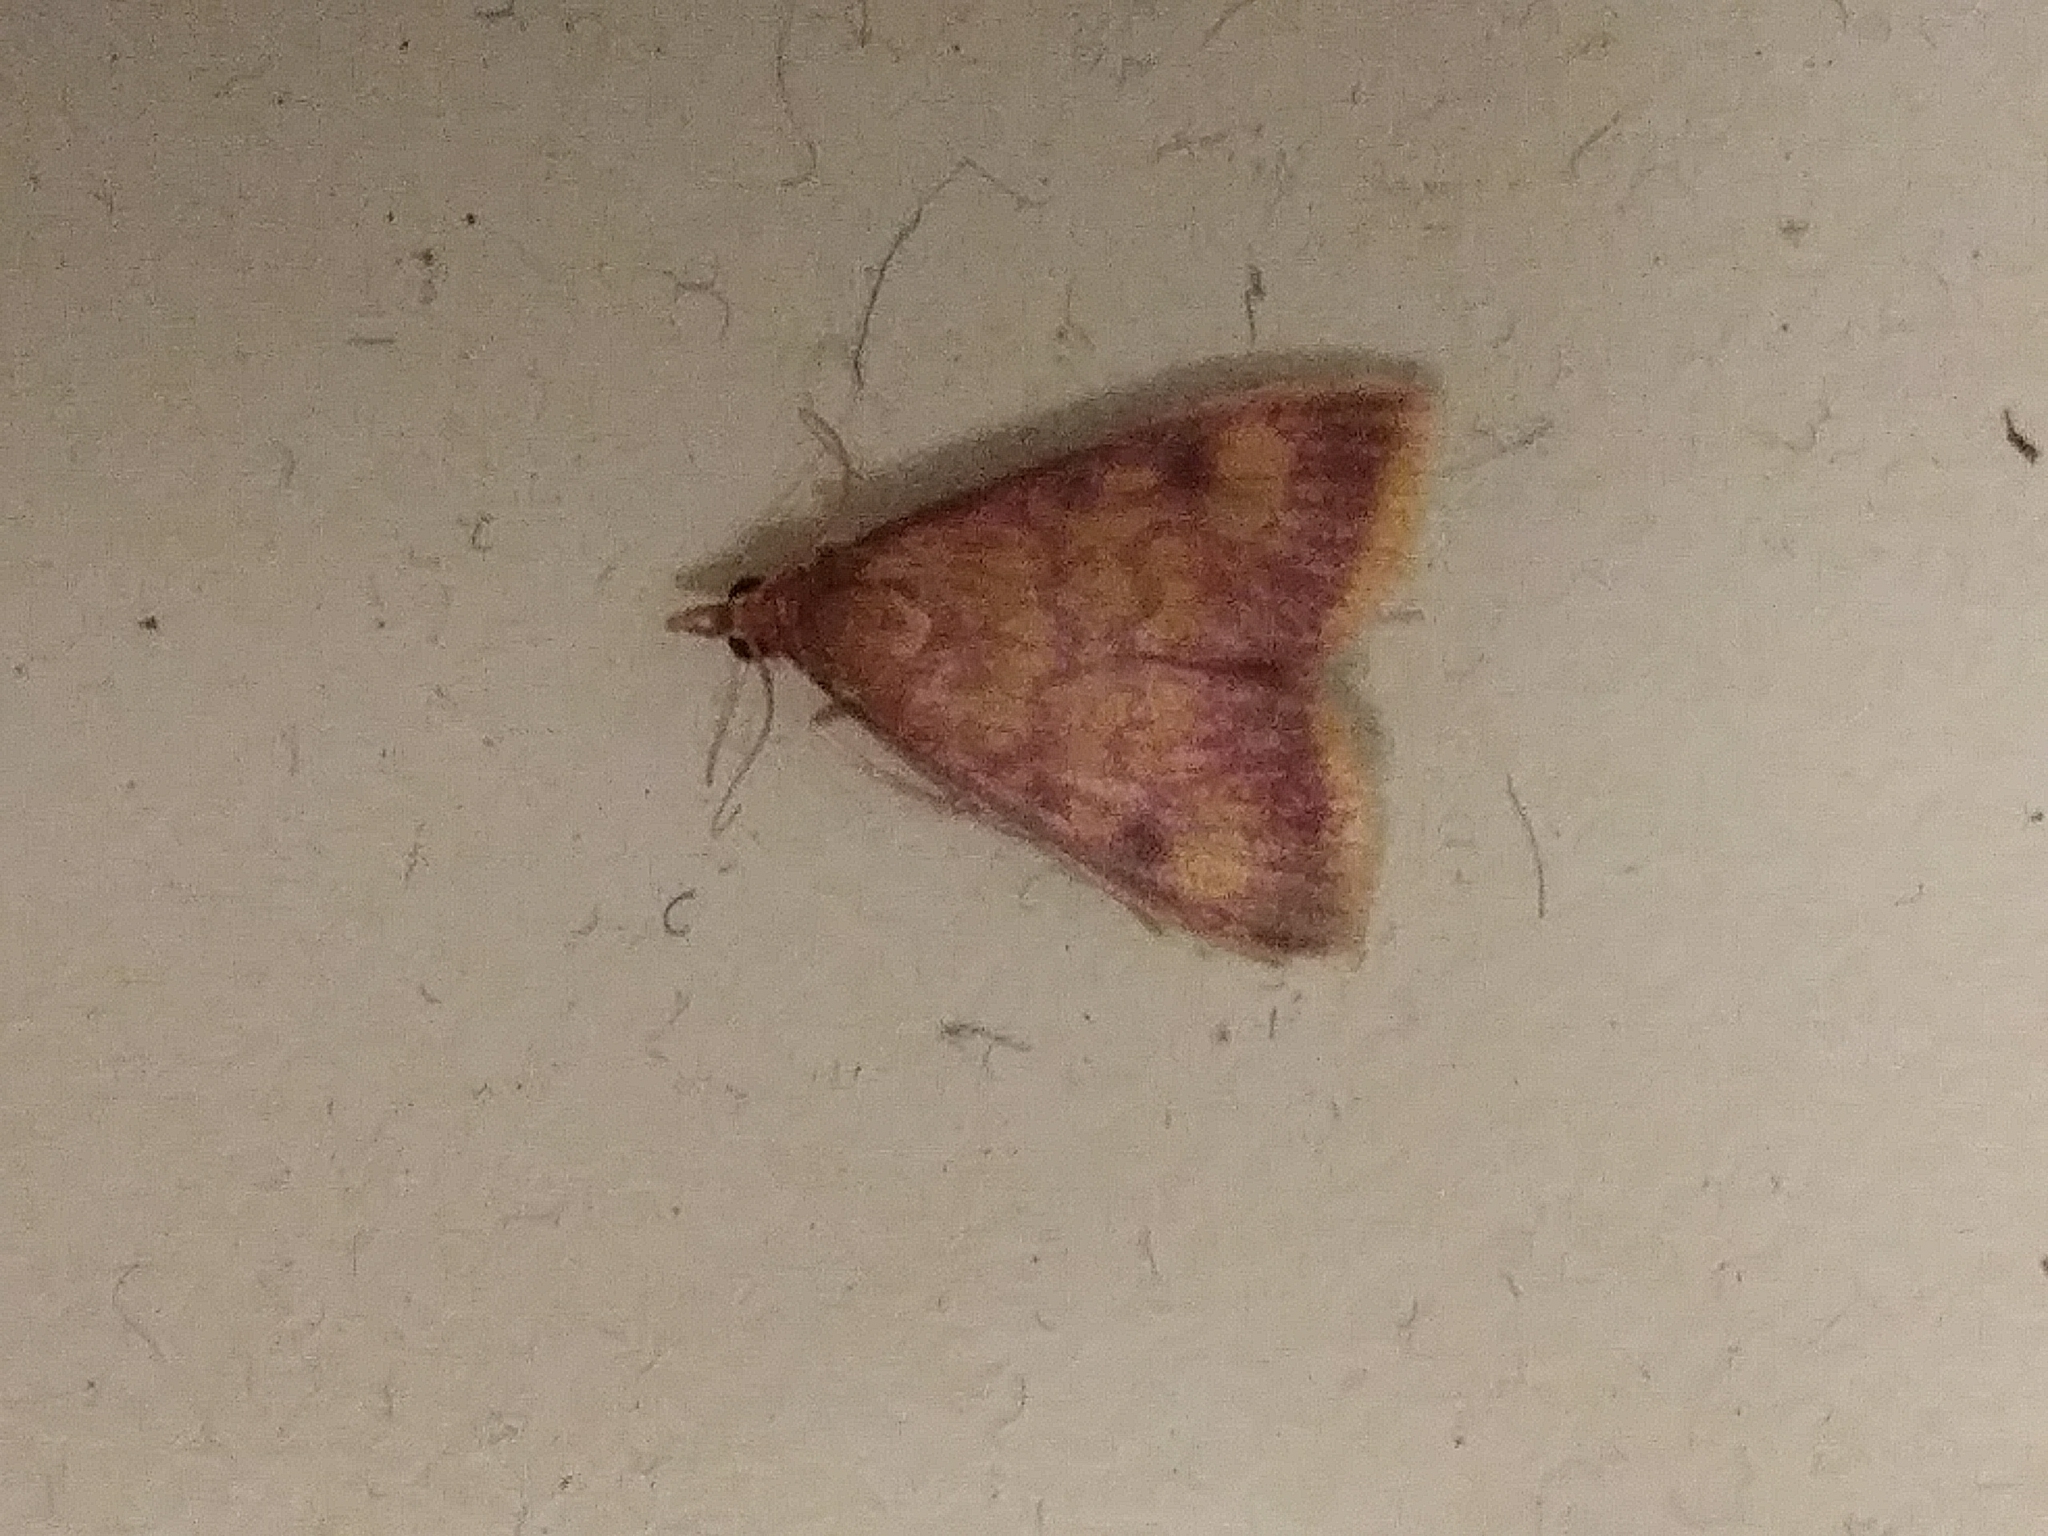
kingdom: Animalia
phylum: Arthropoda
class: Insecta
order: Lepidoptera
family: Crambidae
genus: Pyrausta
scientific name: Pyrausta acrionalis
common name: Mint-loving pyrausta moth
